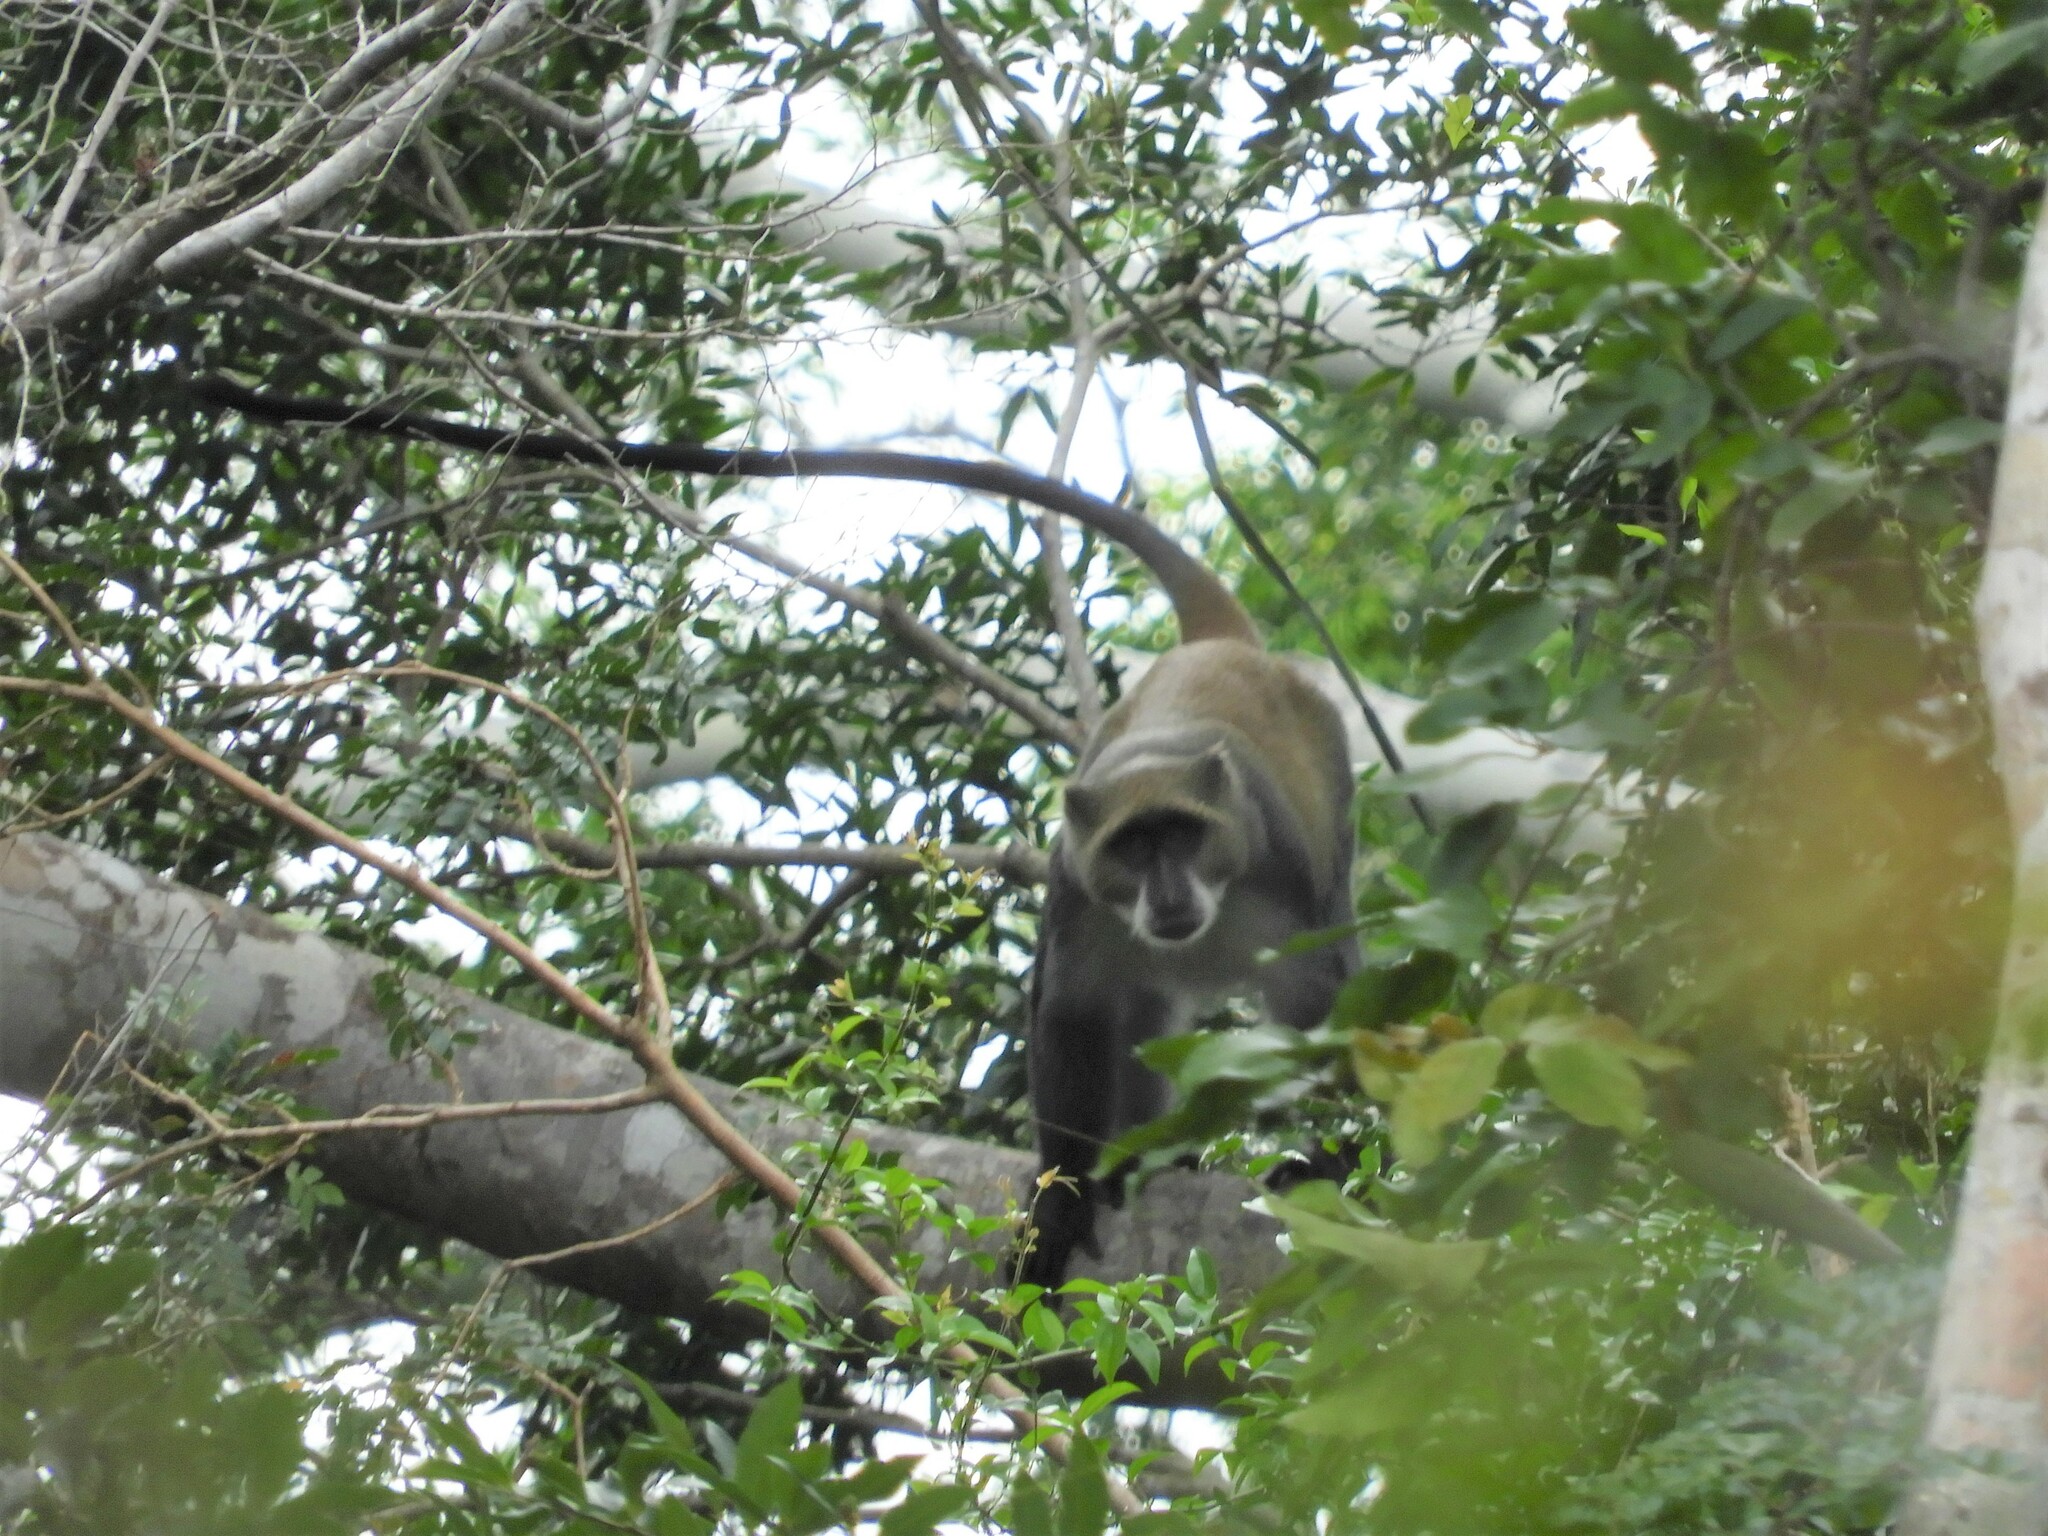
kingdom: Animalia
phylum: Chordata
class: Mammalia
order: Primates
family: Cercopithecidae
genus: Cercopithecus
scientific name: Cercopithecus mitis
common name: Blue monkey
